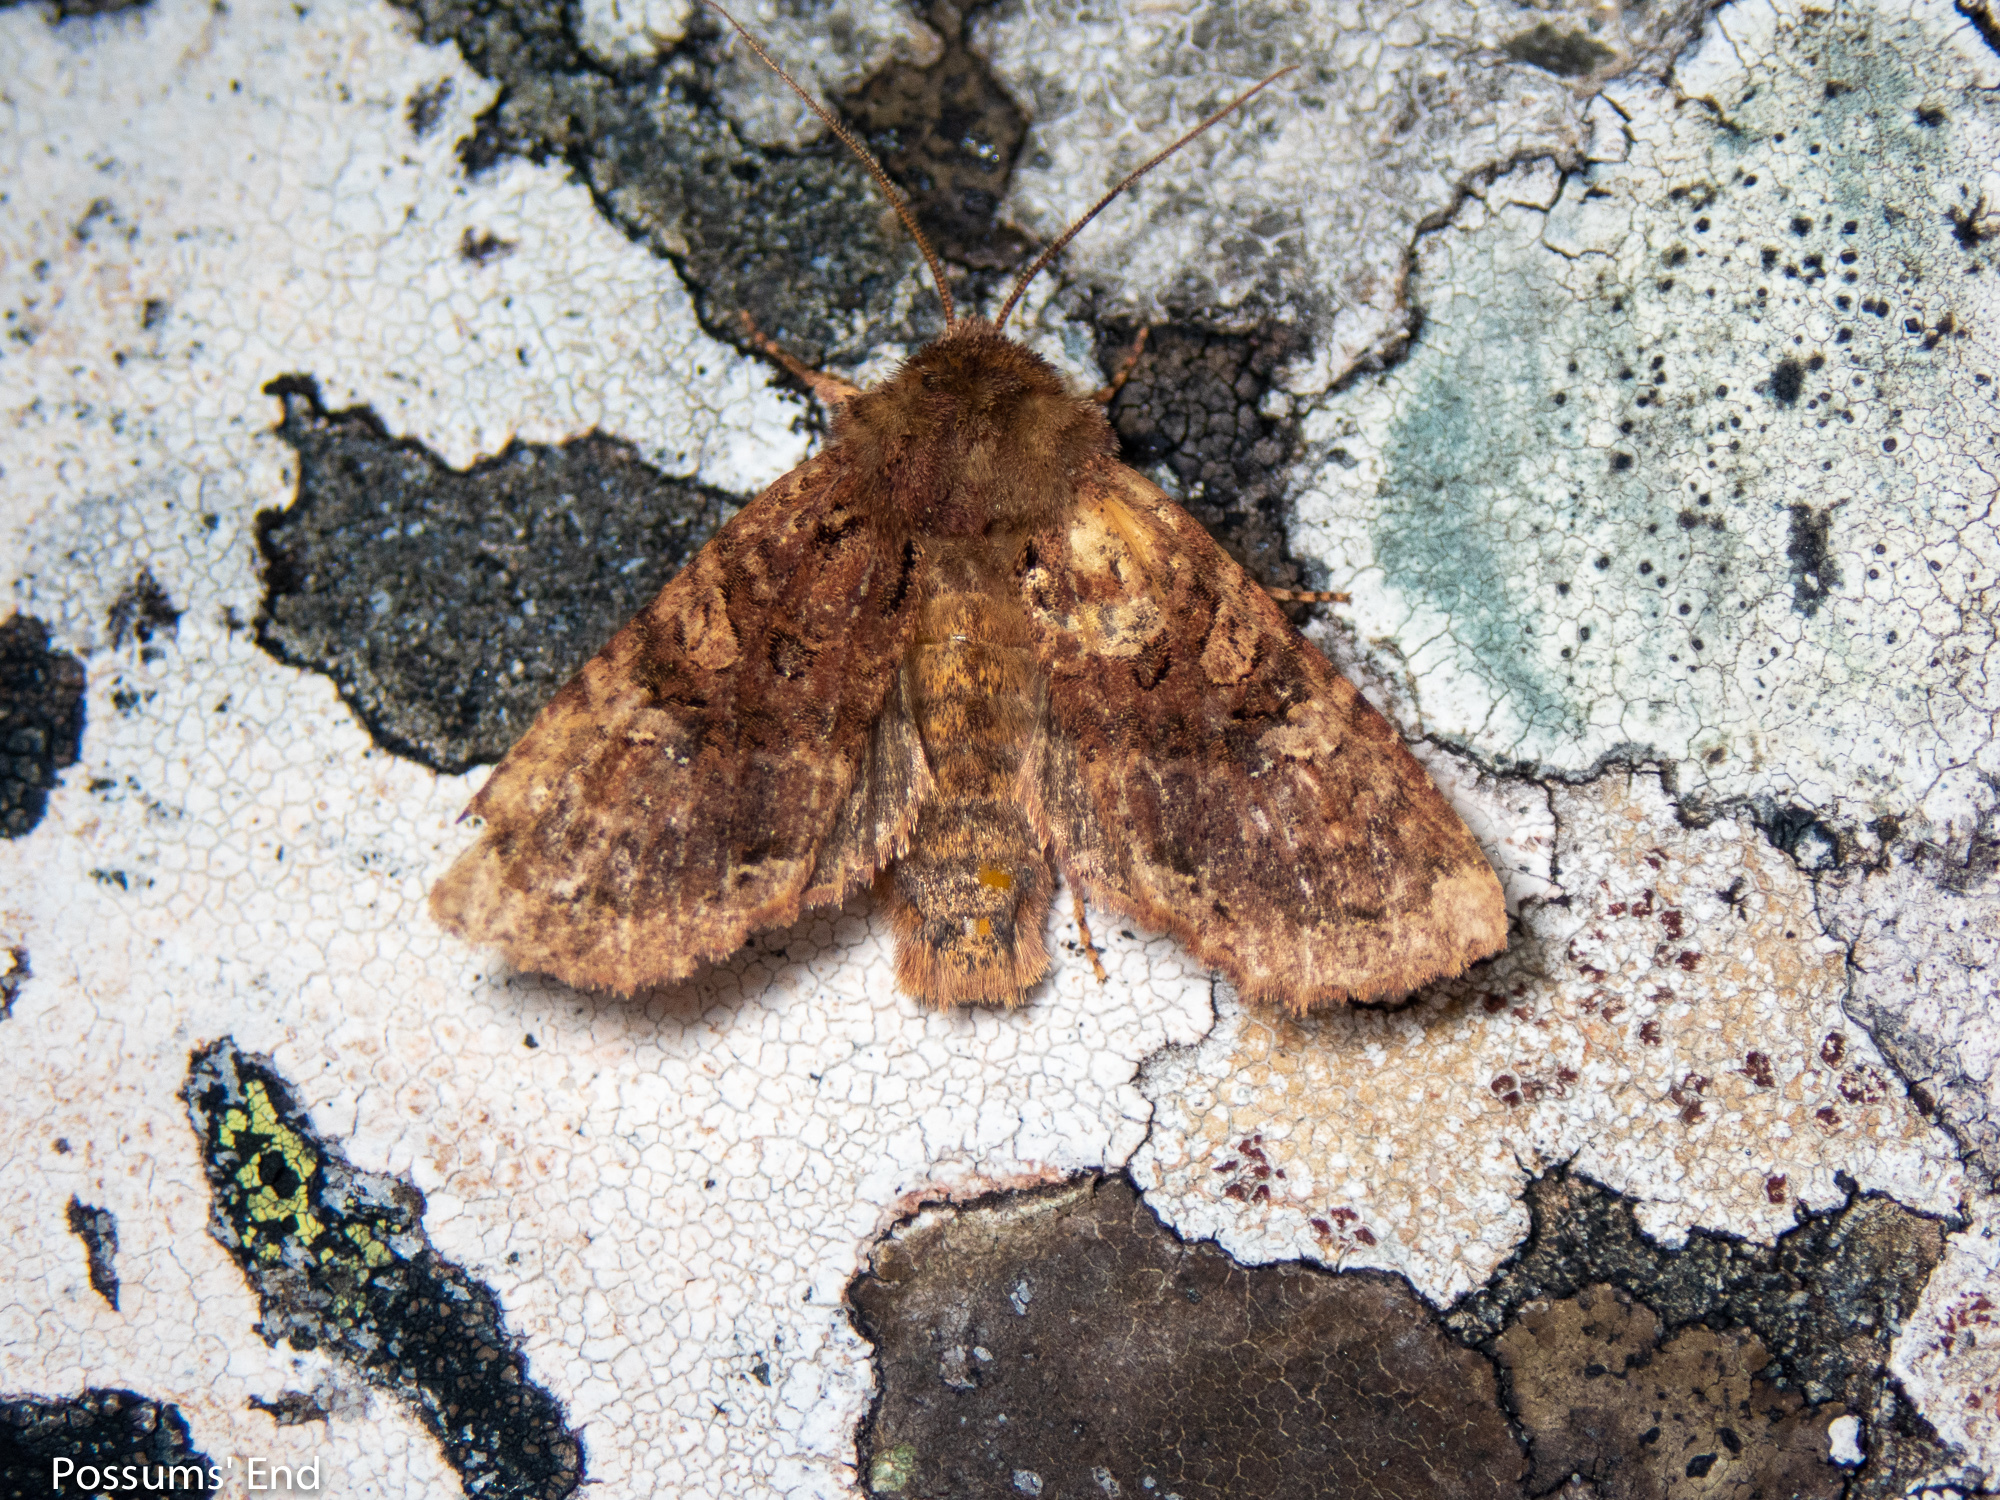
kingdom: Animalia
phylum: Arthropoda
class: Insecta
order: Lepidoptera
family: Noctuidae
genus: Meterana
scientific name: Meterana
